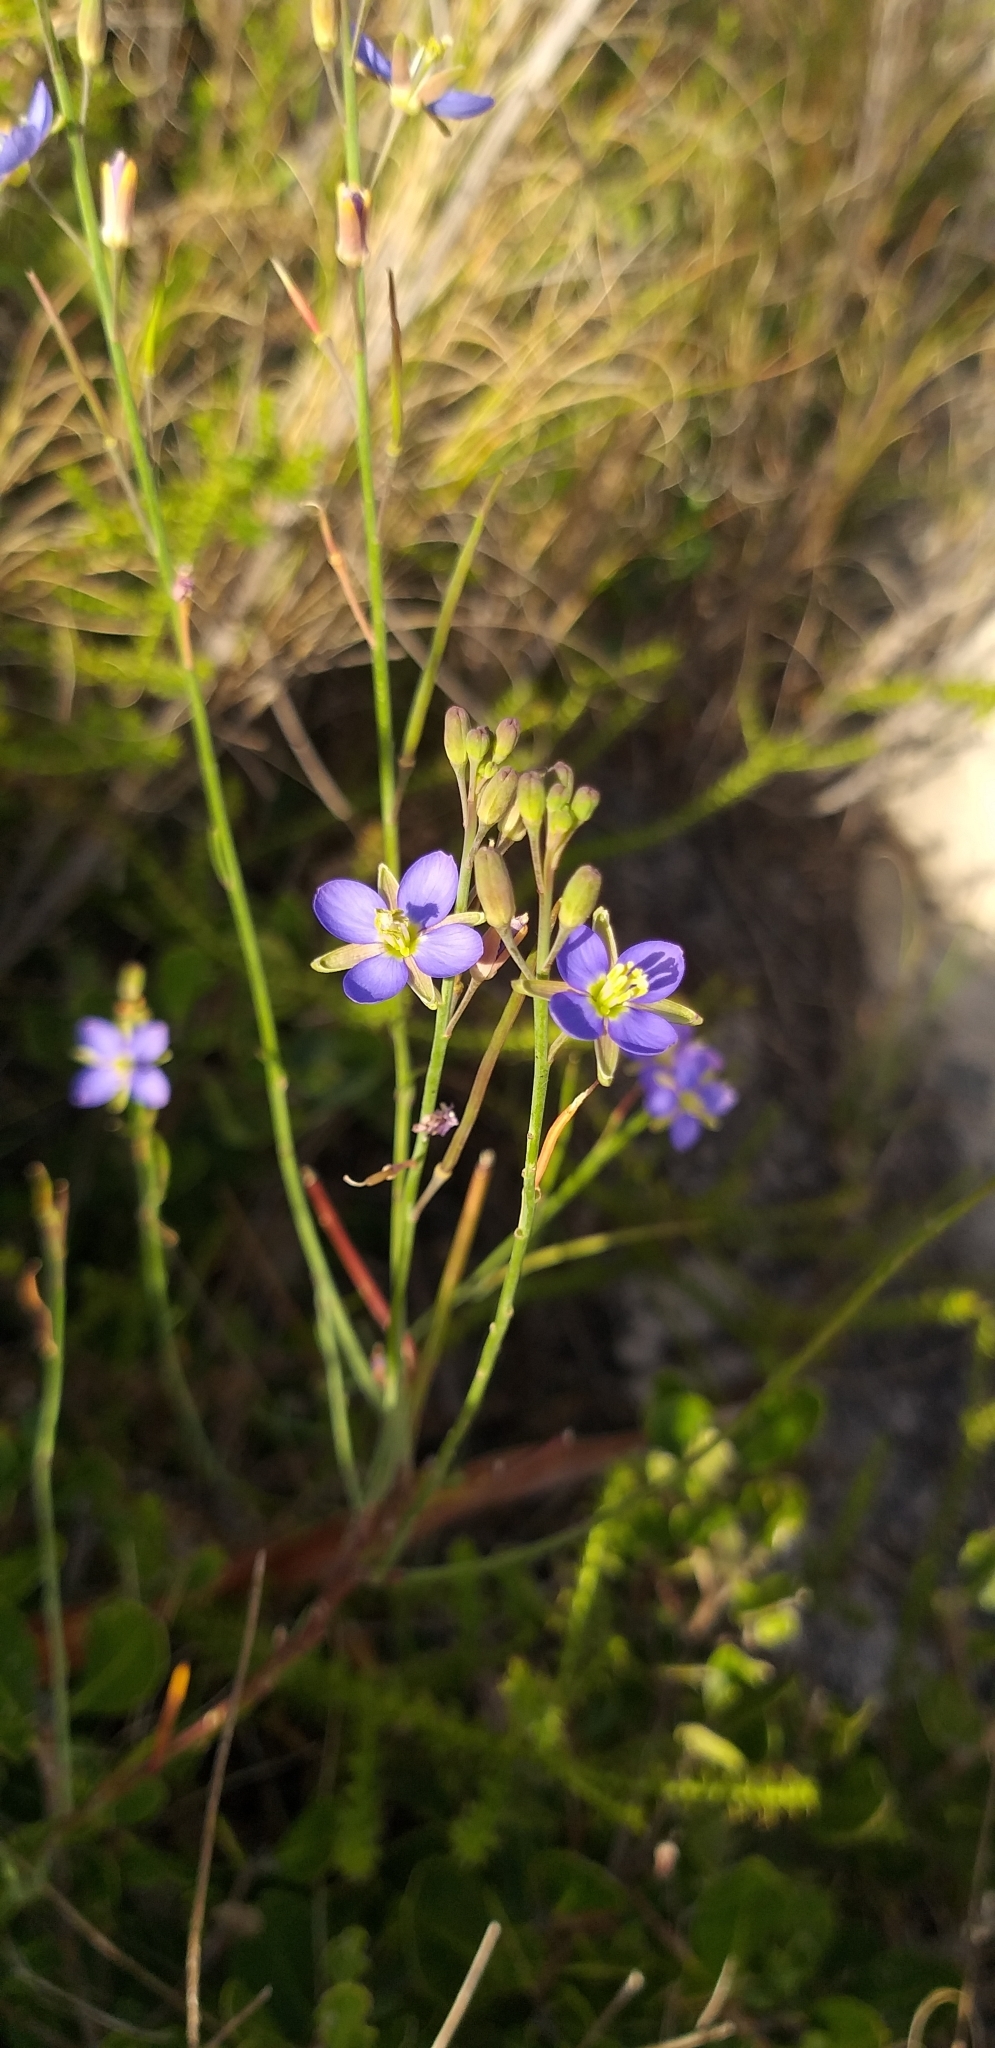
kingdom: Plantae
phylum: Tracheophyta
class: Magnoliopsida
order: Brassicales
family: Brassicaceae
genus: Heliophila
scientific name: Heliophila linearis
